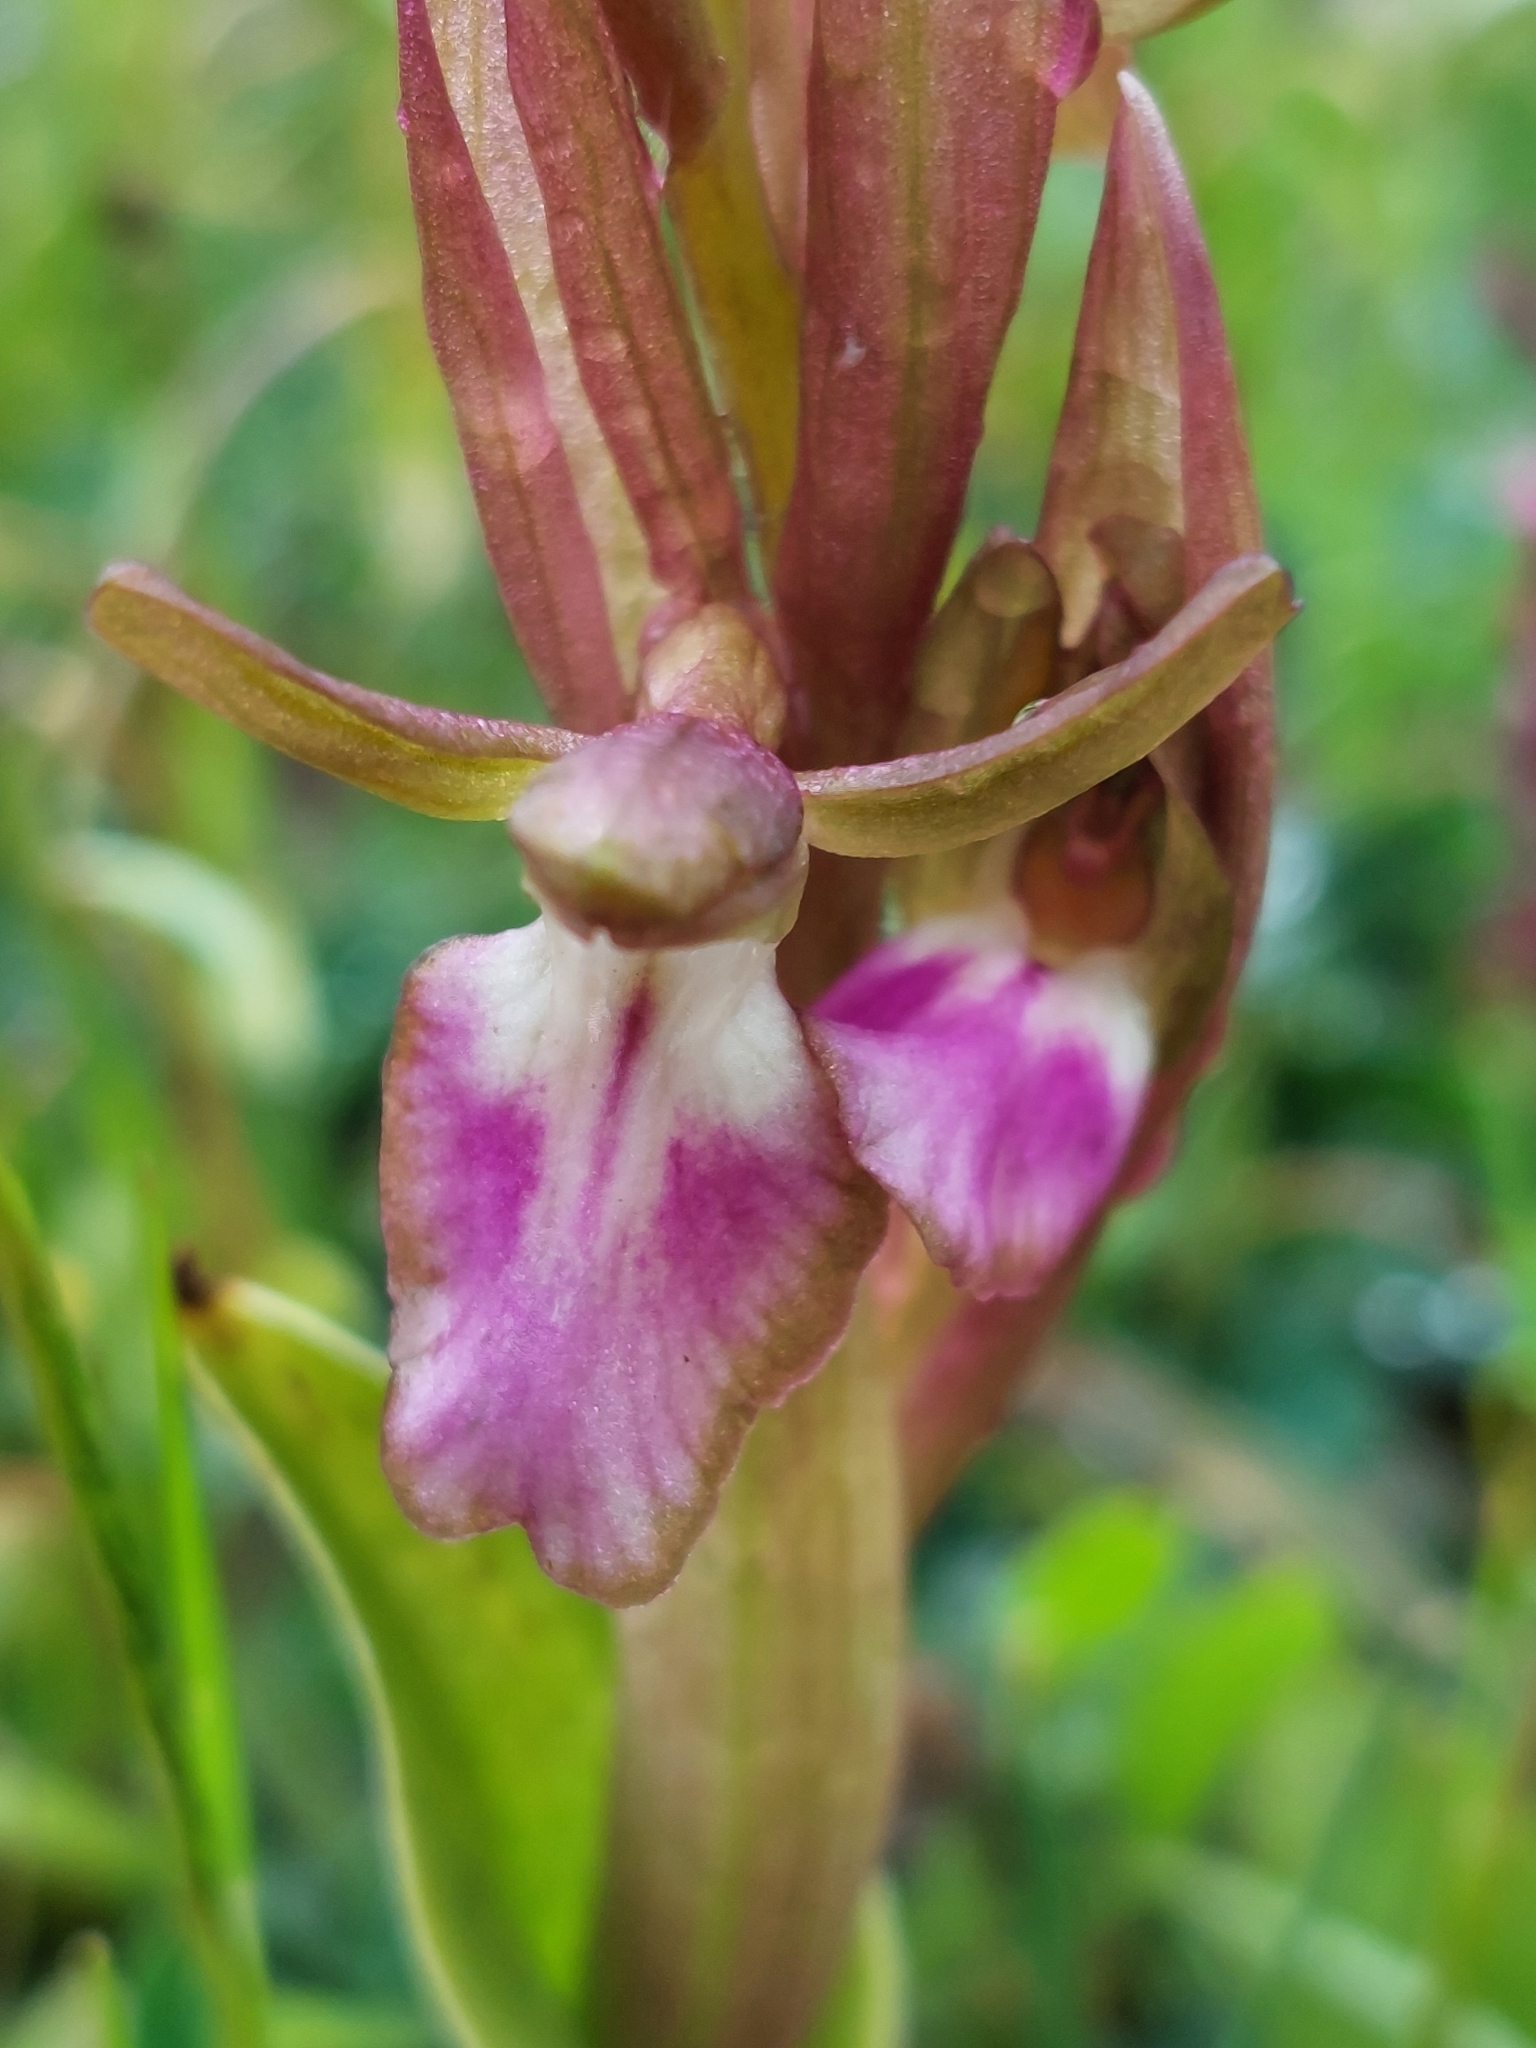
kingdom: Plantae
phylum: Tracheophyta
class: Liliopsida
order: Asparagales
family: Orchidaceae
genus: Anacamptis
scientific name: Anacamptis collina
